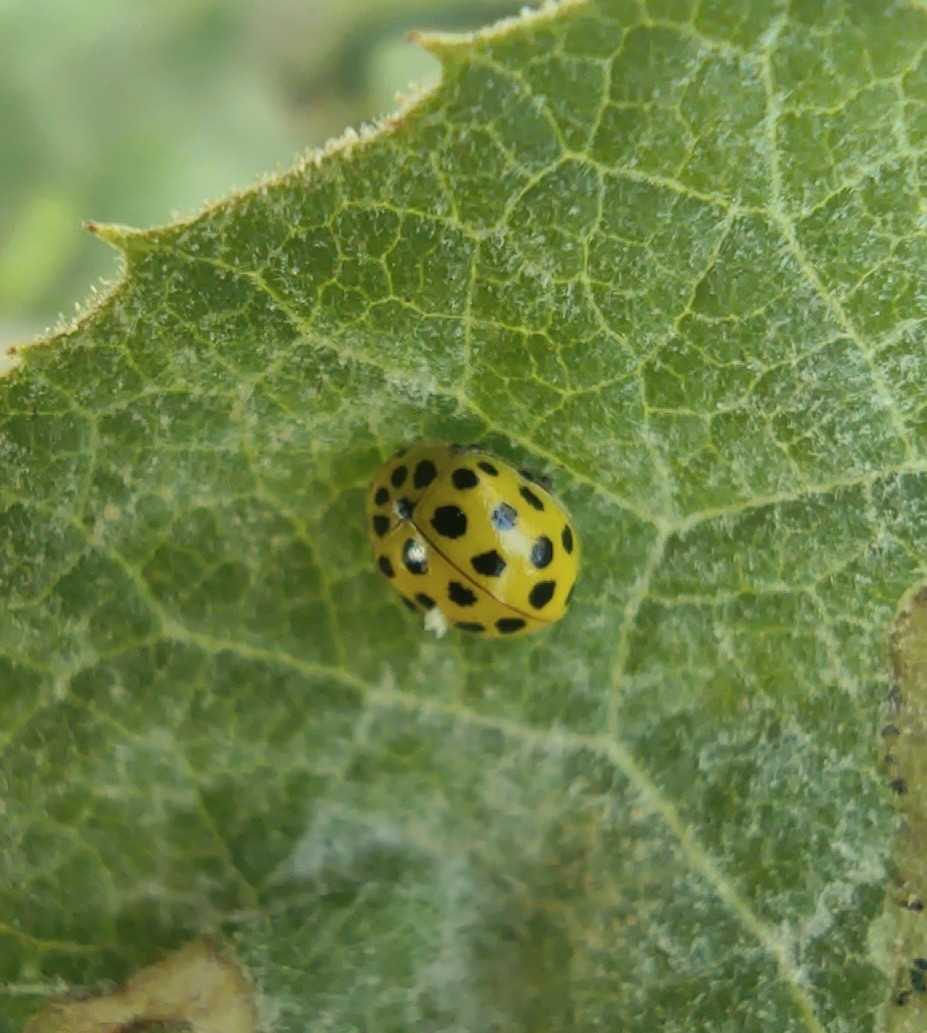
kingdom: Animalia
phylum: Arthropoda
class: Insecta
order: Coleoptera
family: Coccinellidae
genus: Psyllobora
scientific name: Psyllobora vigintiduopunctata
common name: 22-spot ladybird
